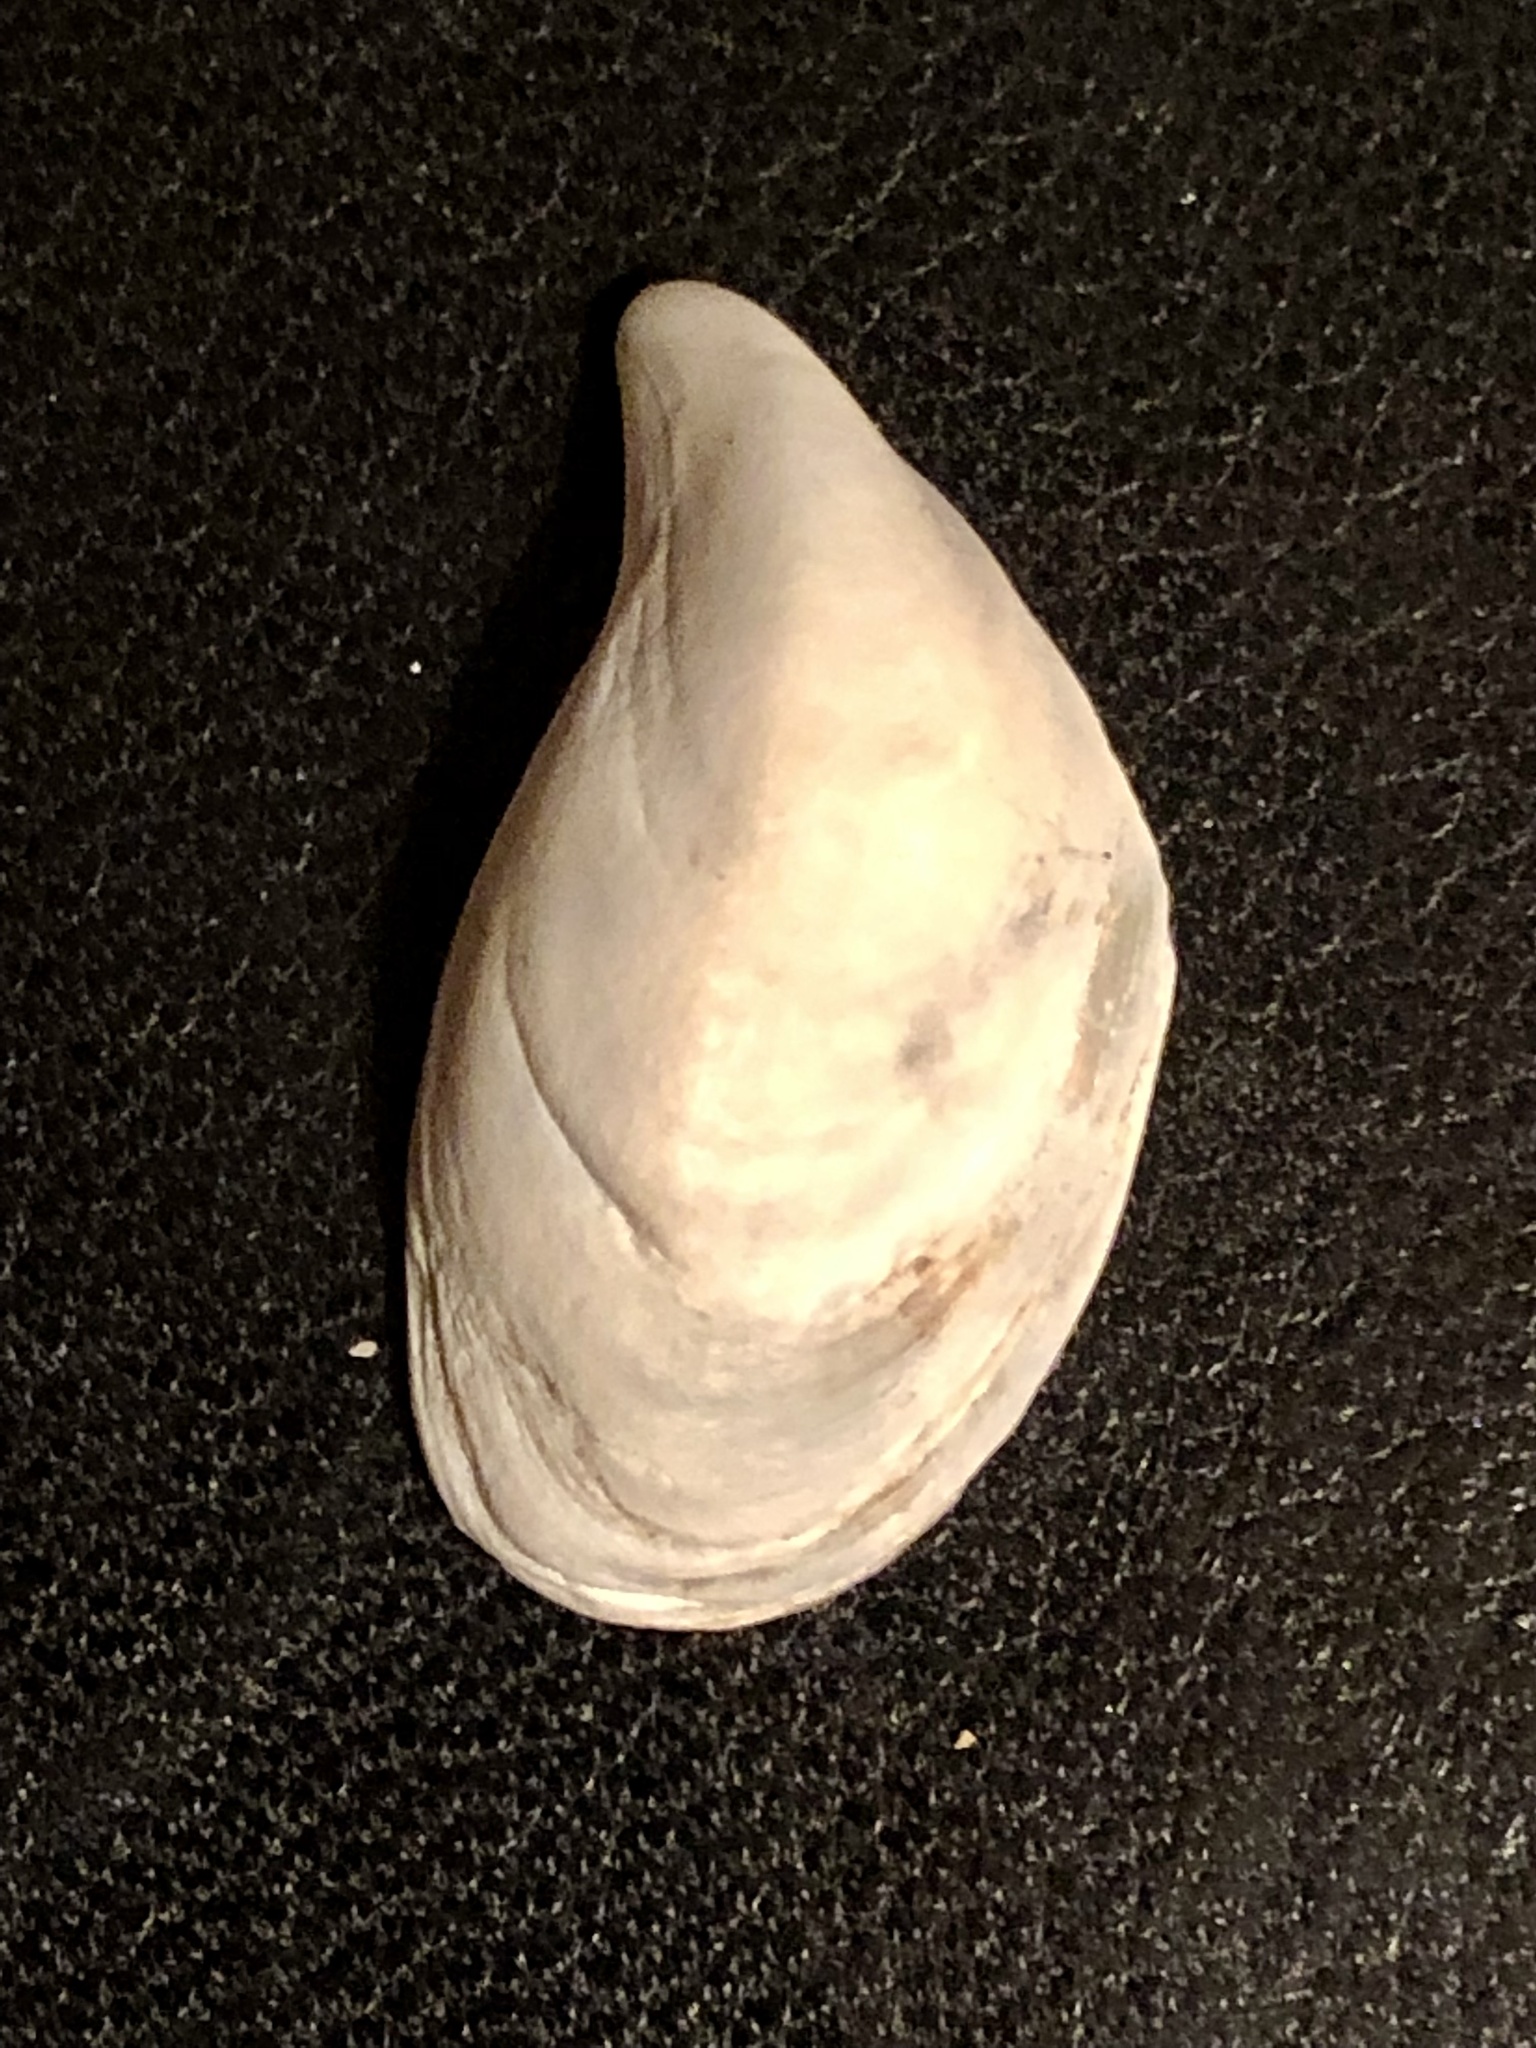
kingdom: Animalia
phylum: Mollusca
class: Bivalvia
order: Myida
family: Dreissenidae
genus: Dreissena
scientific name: Dreissena bugensis
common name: Quagga mussel
